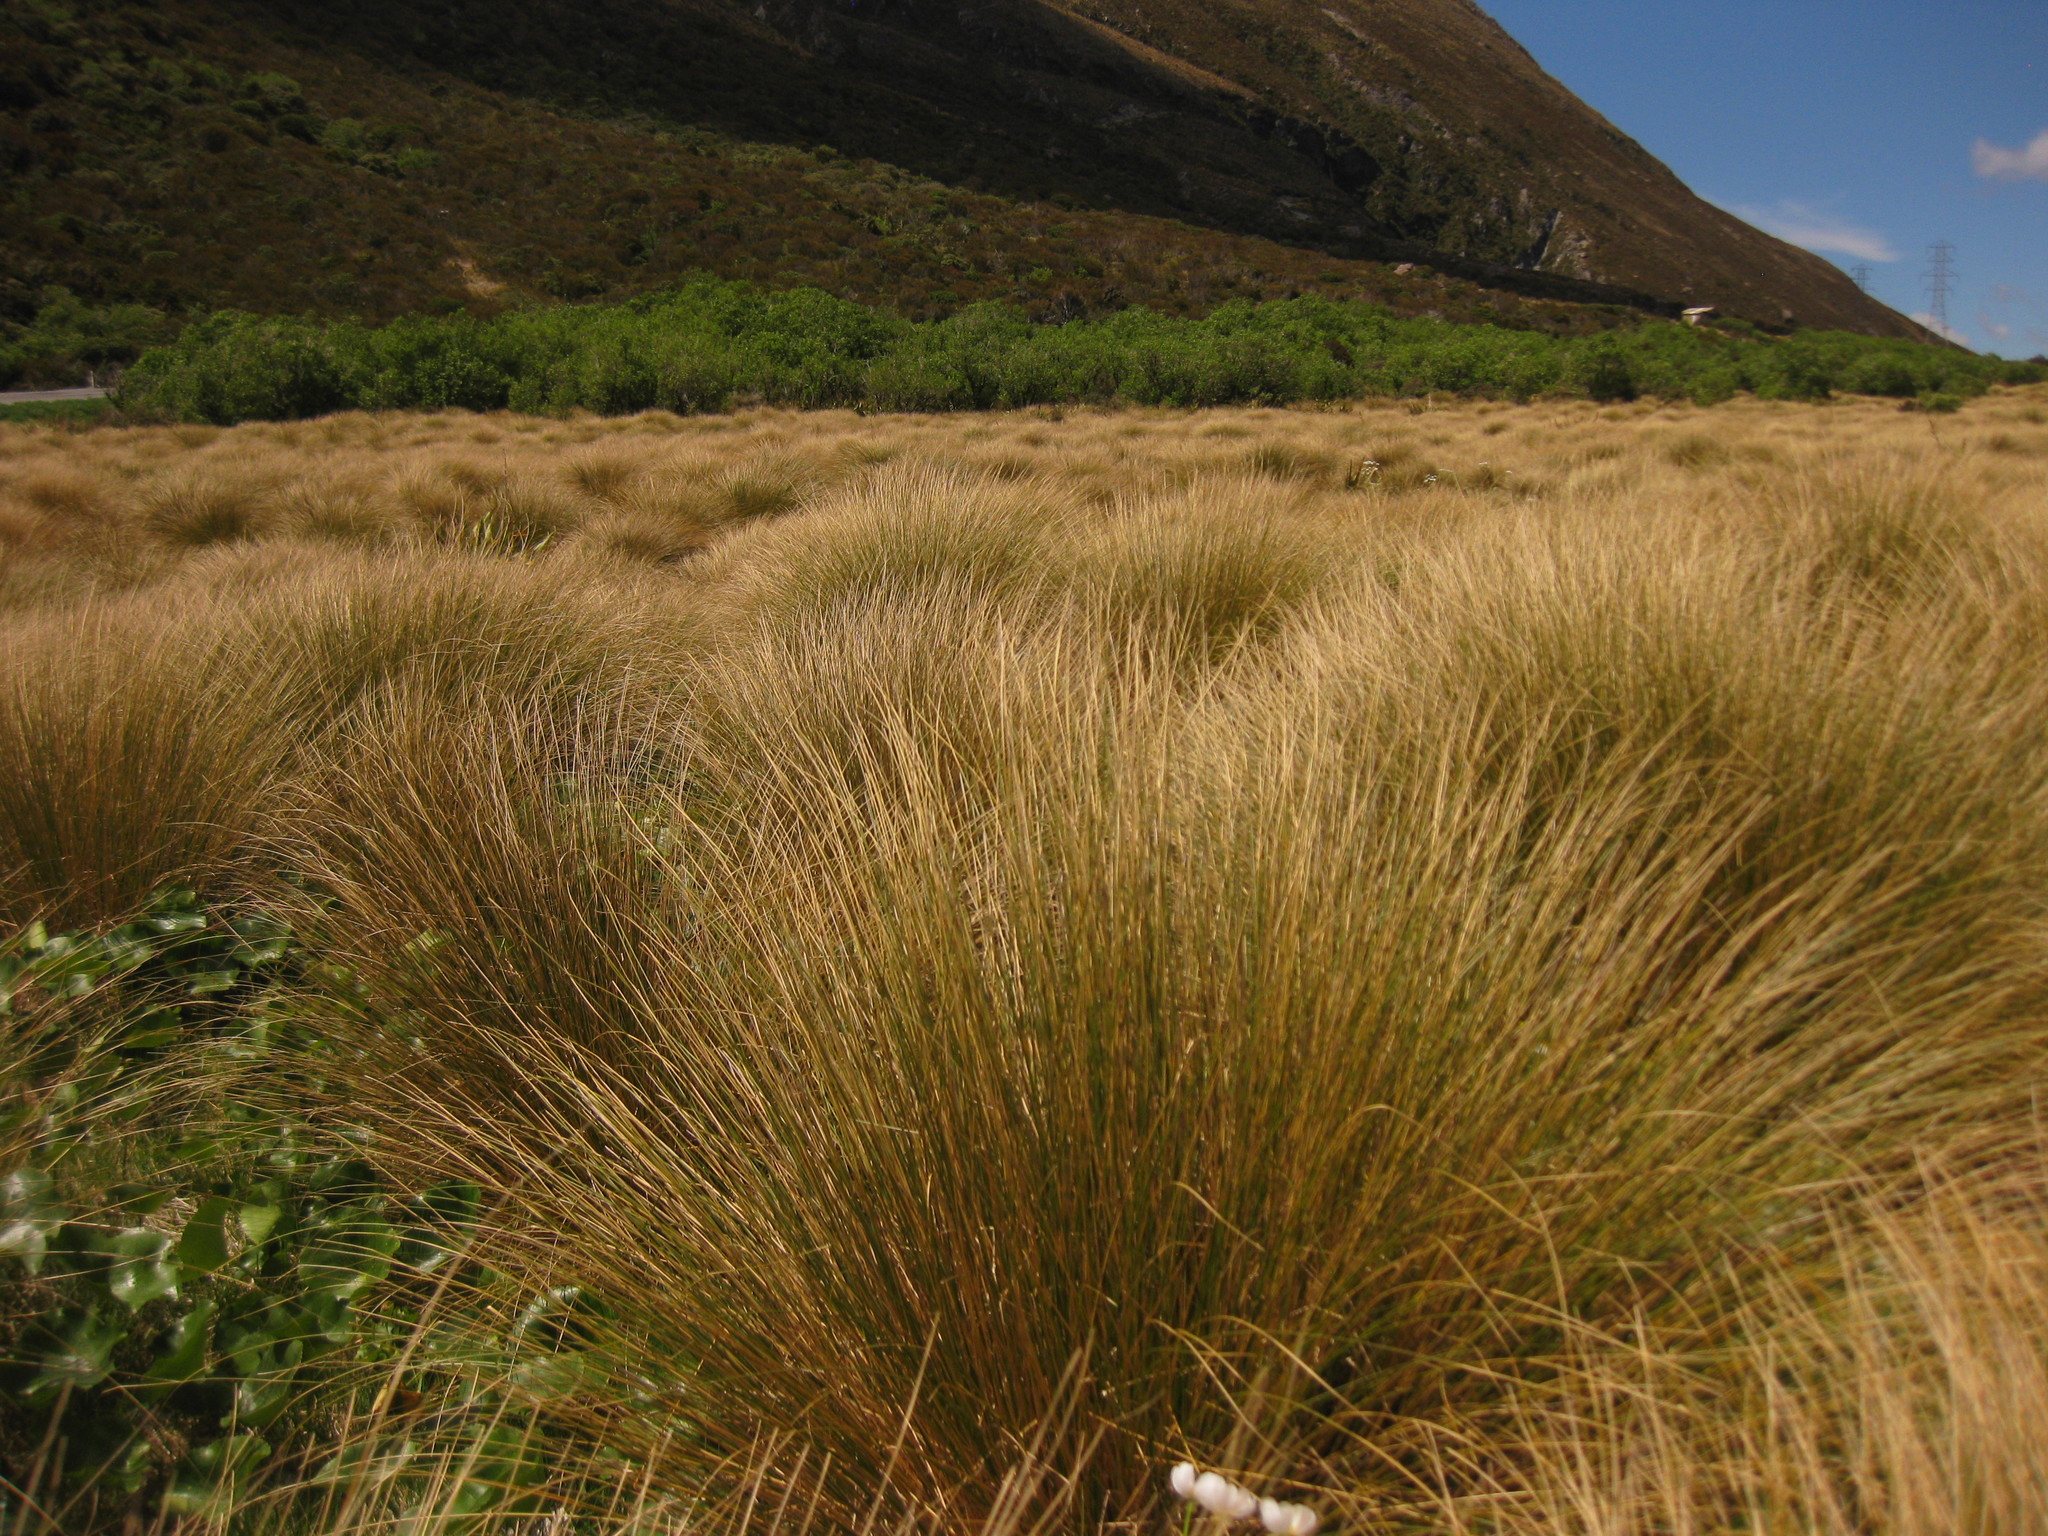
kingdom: Plantae
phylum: Tracheophyta
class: Liliopsida
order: Poales
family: Poaceae
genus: Chionochloa
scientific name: Chionochloa rubra
